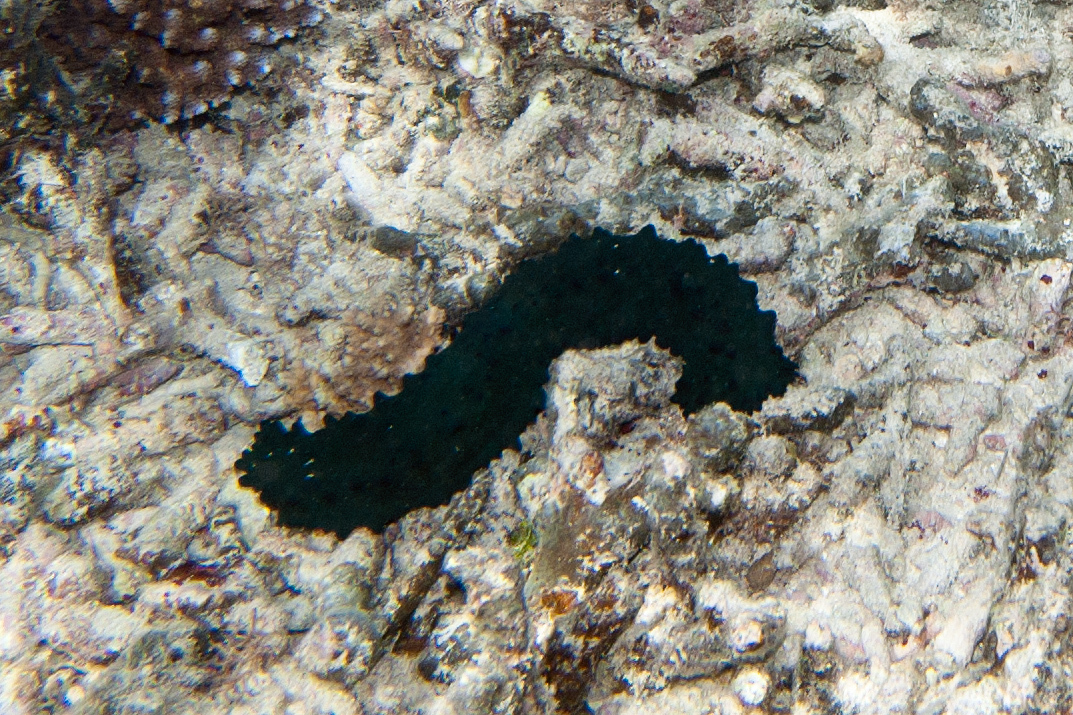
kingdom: Animalia
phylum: Echinodermata
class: Holothuroidea
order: Synallactida
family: Stichopodidae
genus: Stichopus
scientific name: Stichopus chloronotus
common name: Greenfish
